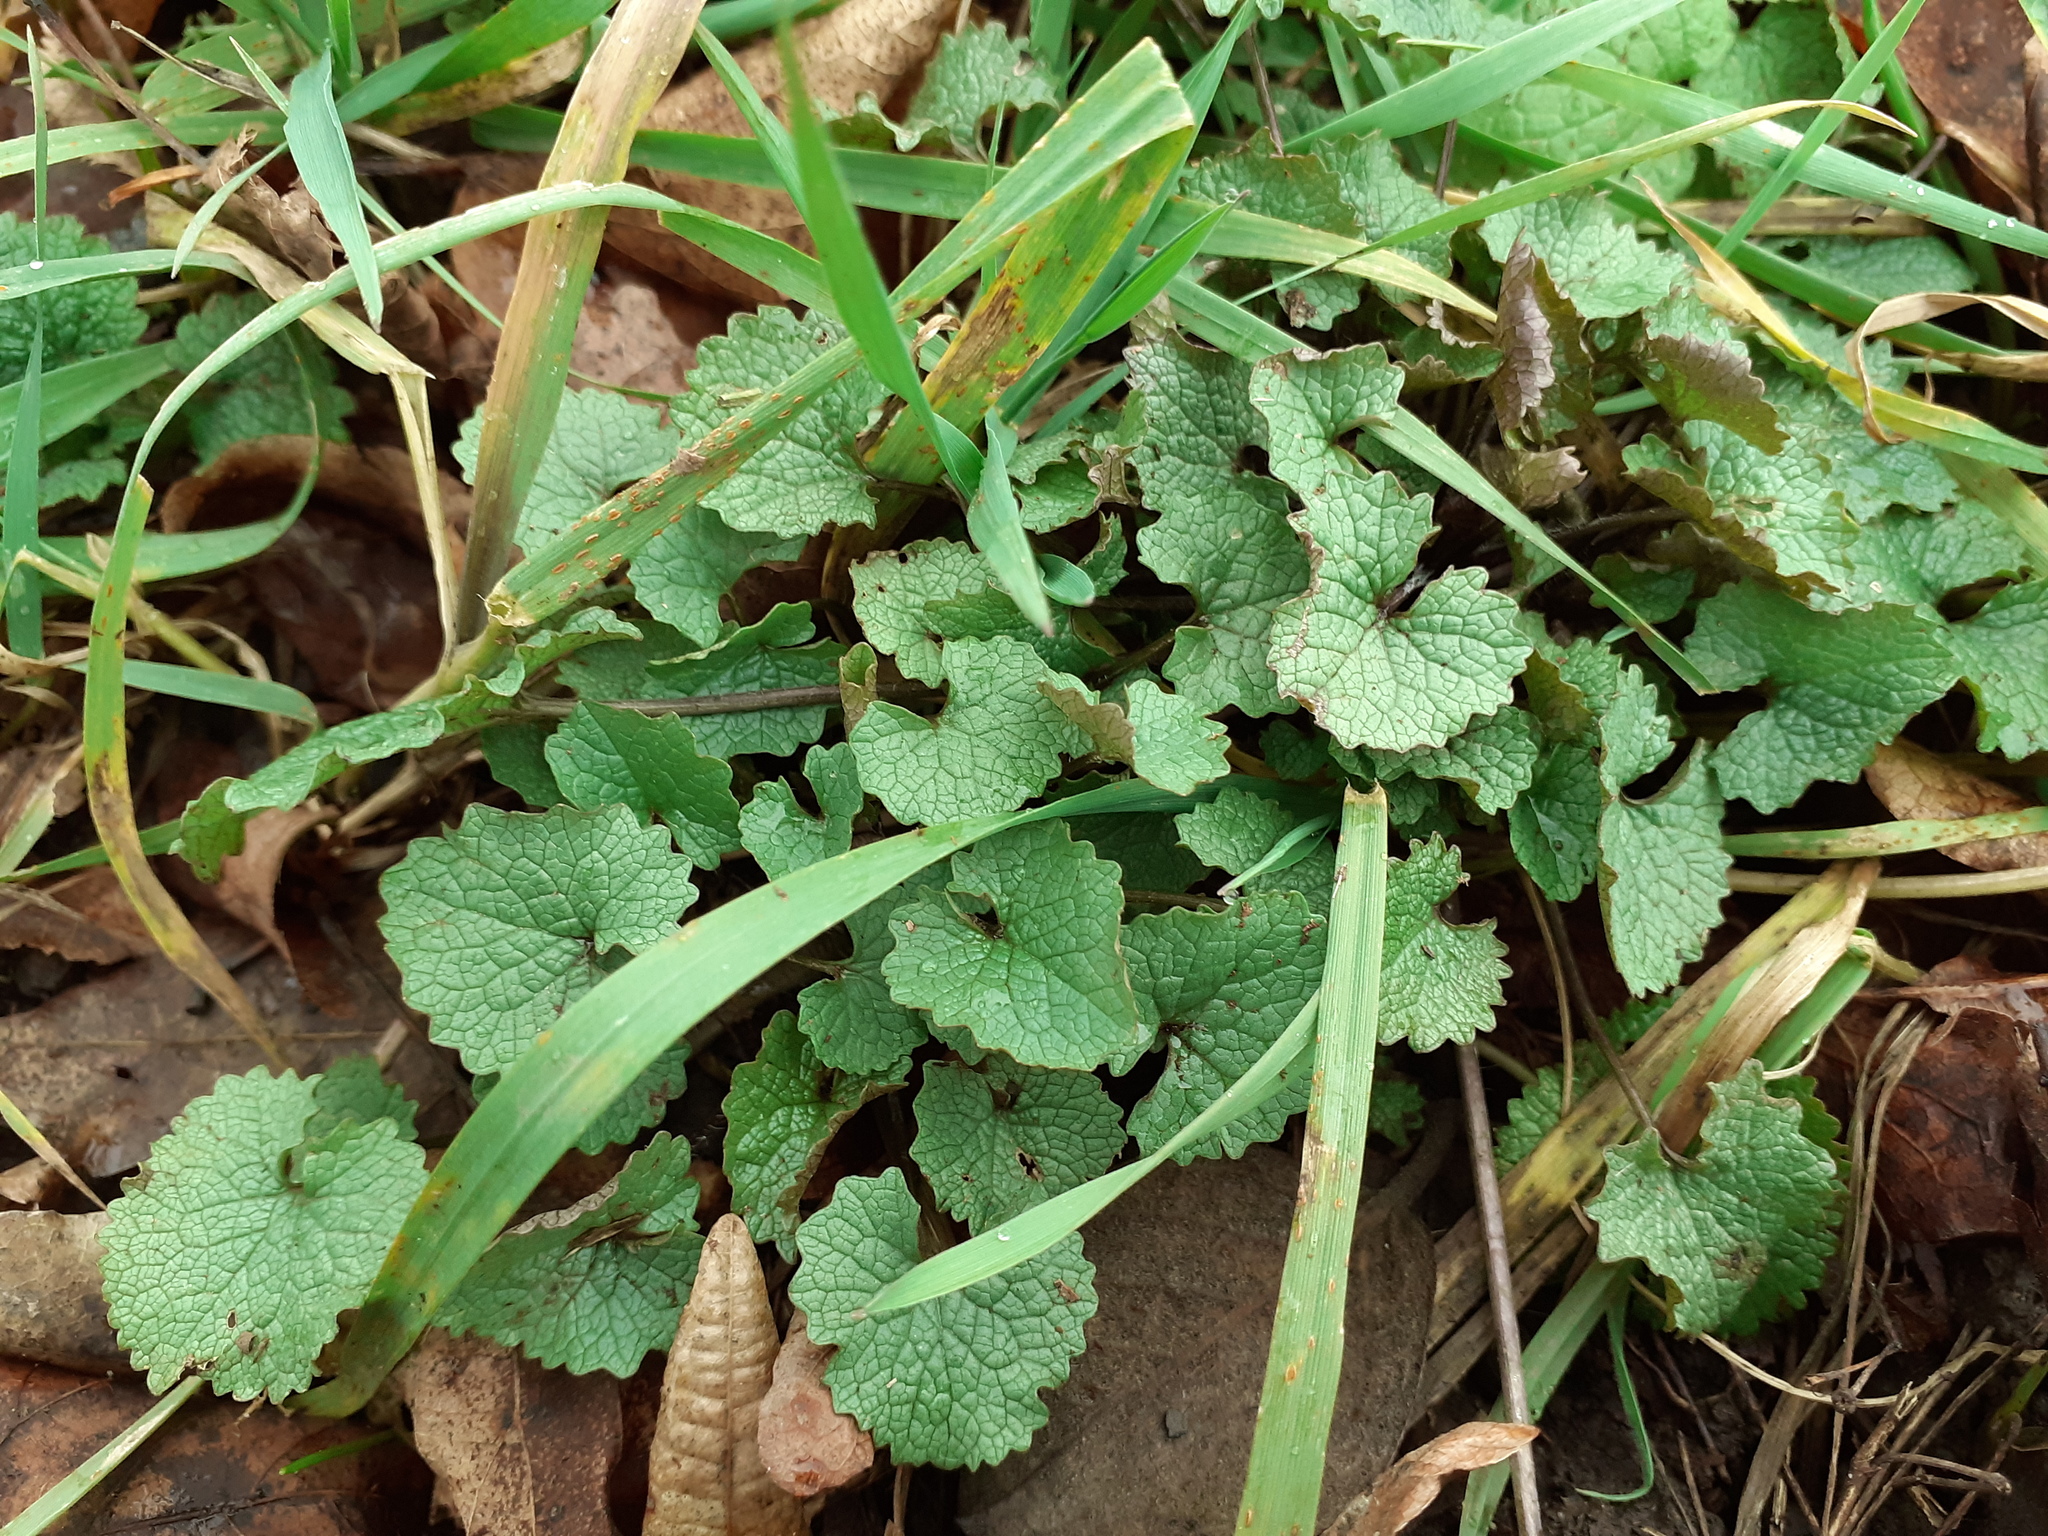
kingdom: Plantae
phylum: Tracheophyta
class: Magnoliopsida
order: Brassicales
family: Brassicaceae
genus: Alliaria
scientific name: Alliaria petiolata
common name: Garlic mustard
